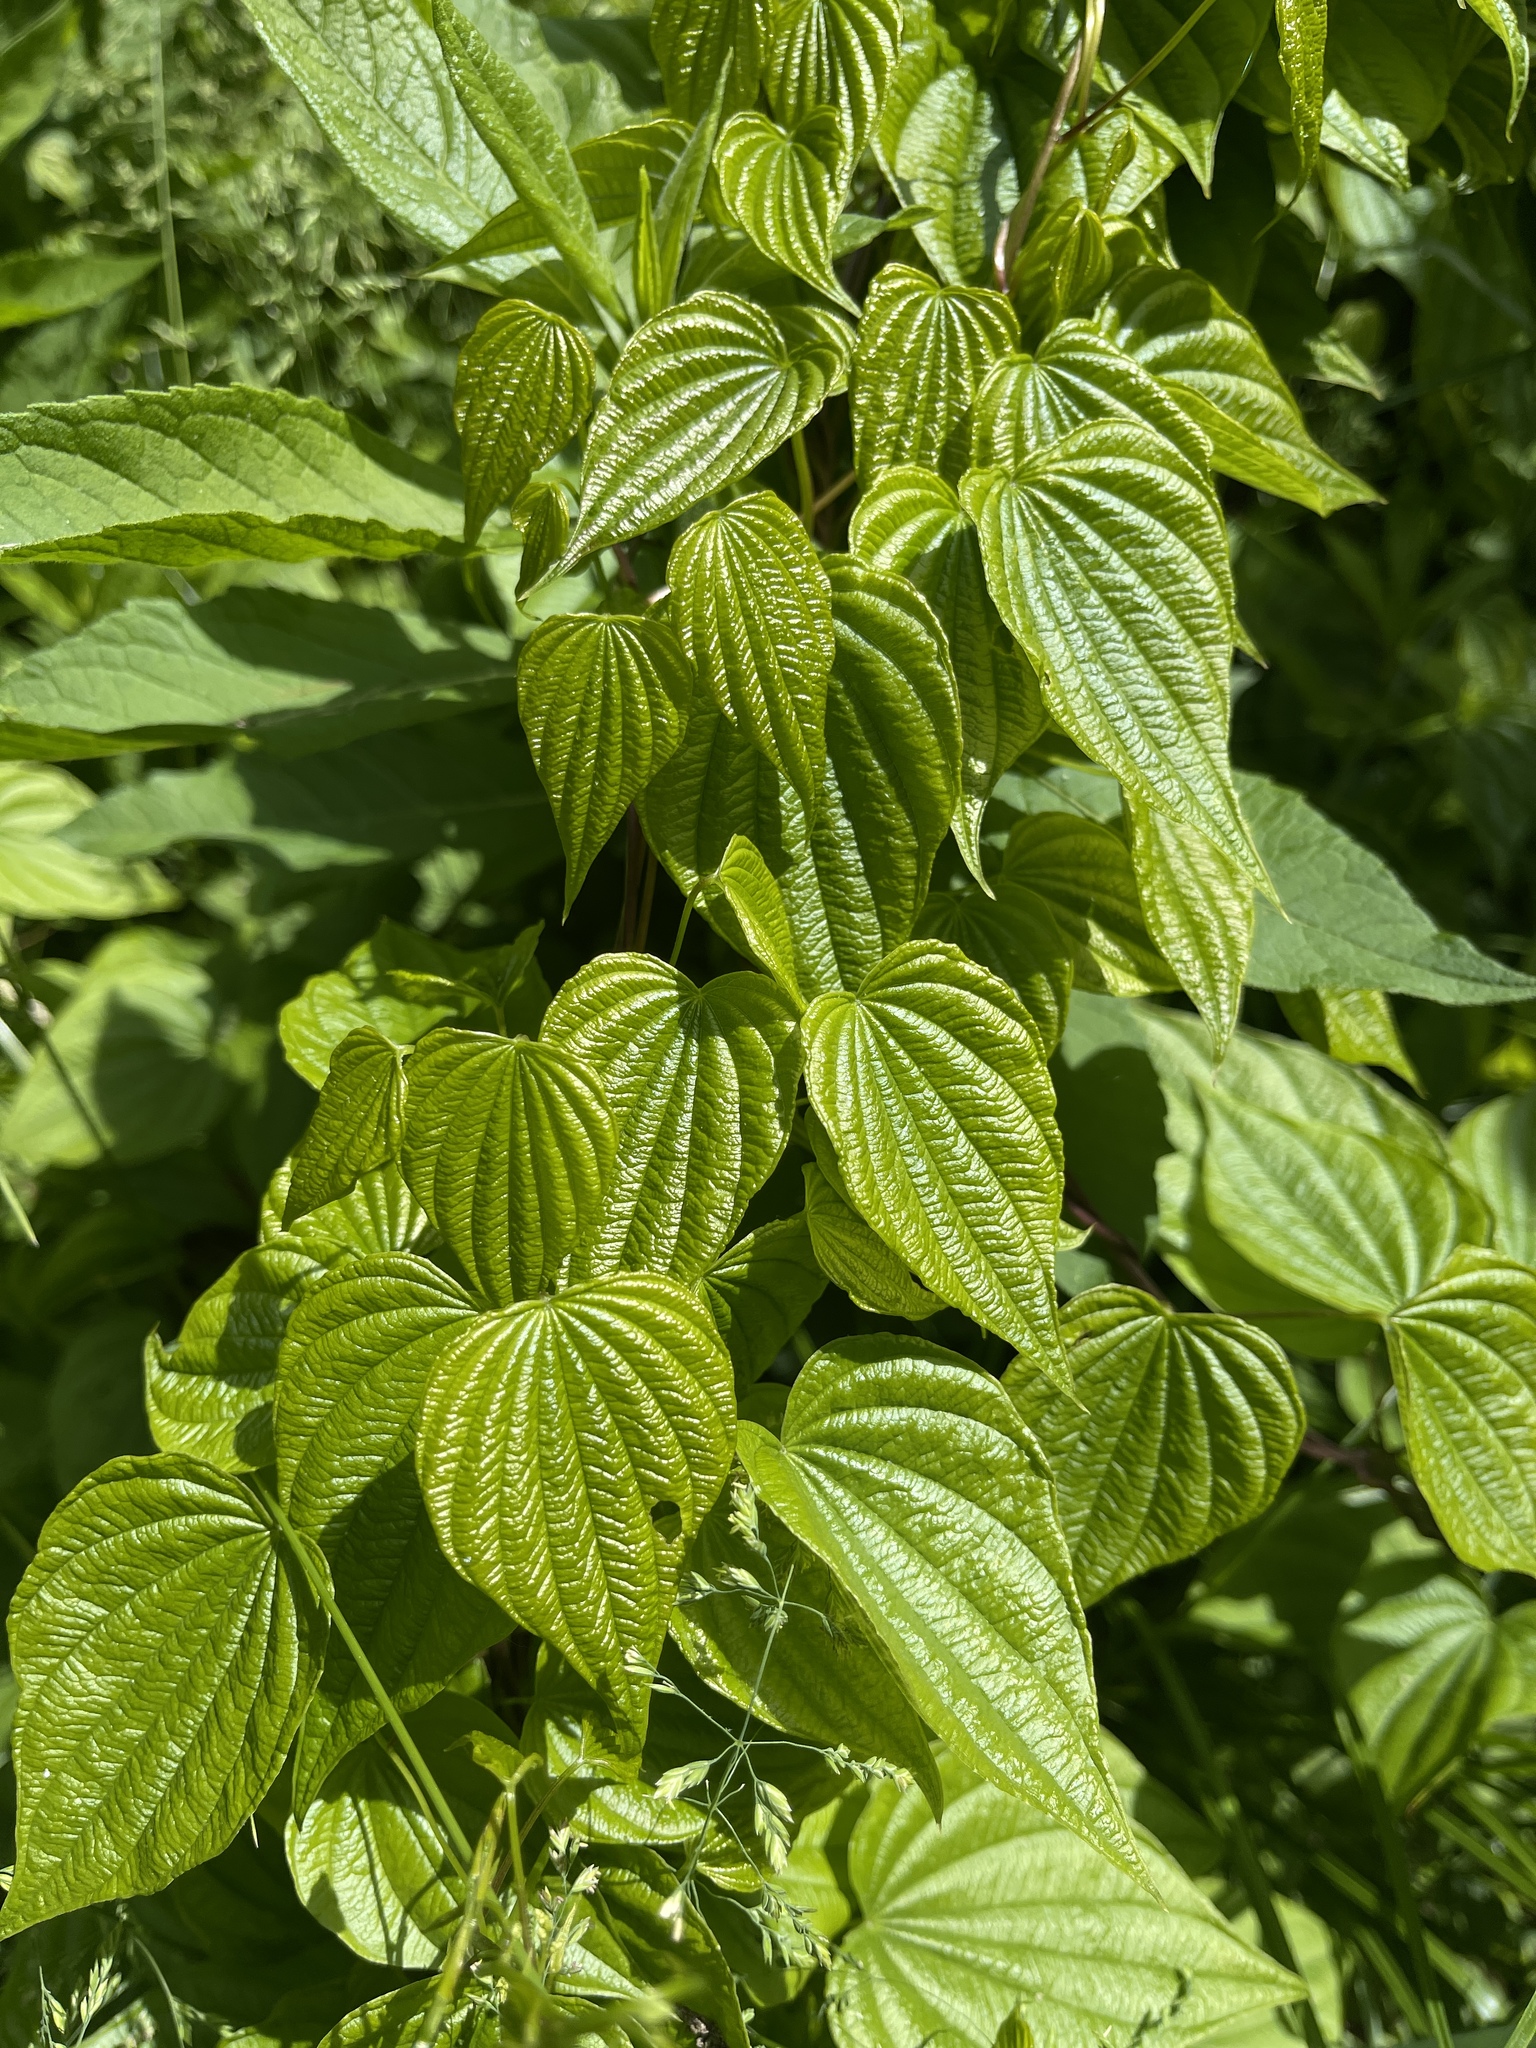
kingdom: Plantae
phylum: Tracheophyta
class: Liliopsida
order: Dioscoreales
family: Dioscoreaceae
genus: Dioscorea
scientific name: Dioscorea villosa
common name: Wild yam
